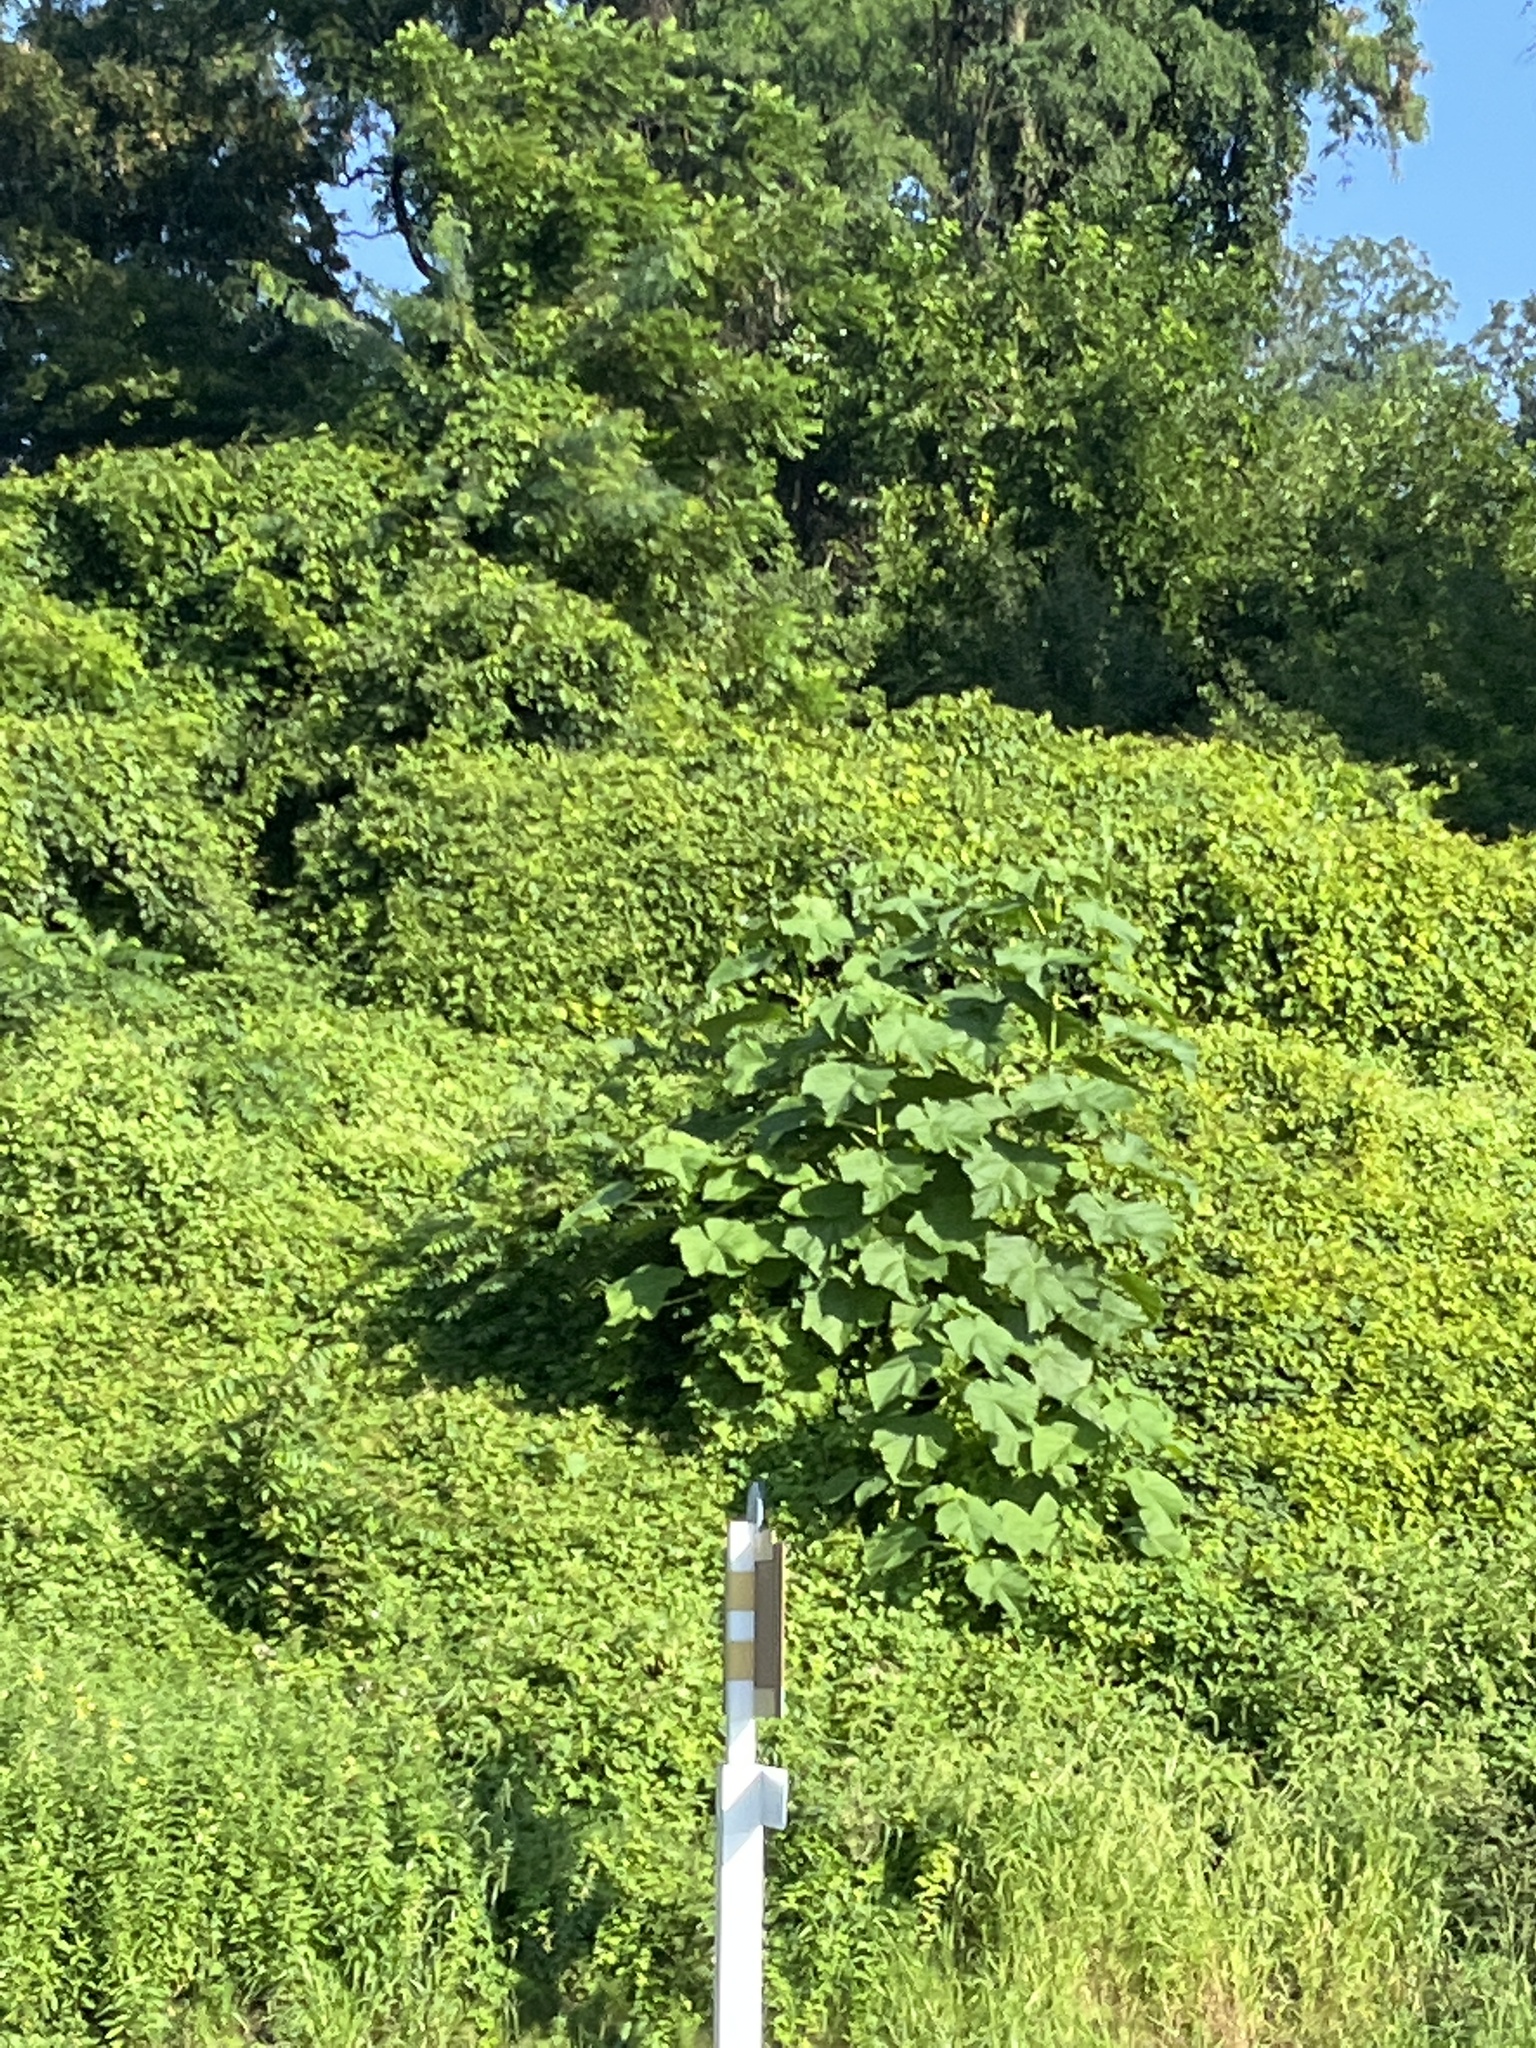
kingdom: Plantae
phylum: Tracheophyta
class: Magnoliopsida
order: Lamiales
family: Paulowniaceae
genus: Paulownia
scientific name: Paulownia tomentosa
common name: Foxglove-tree
